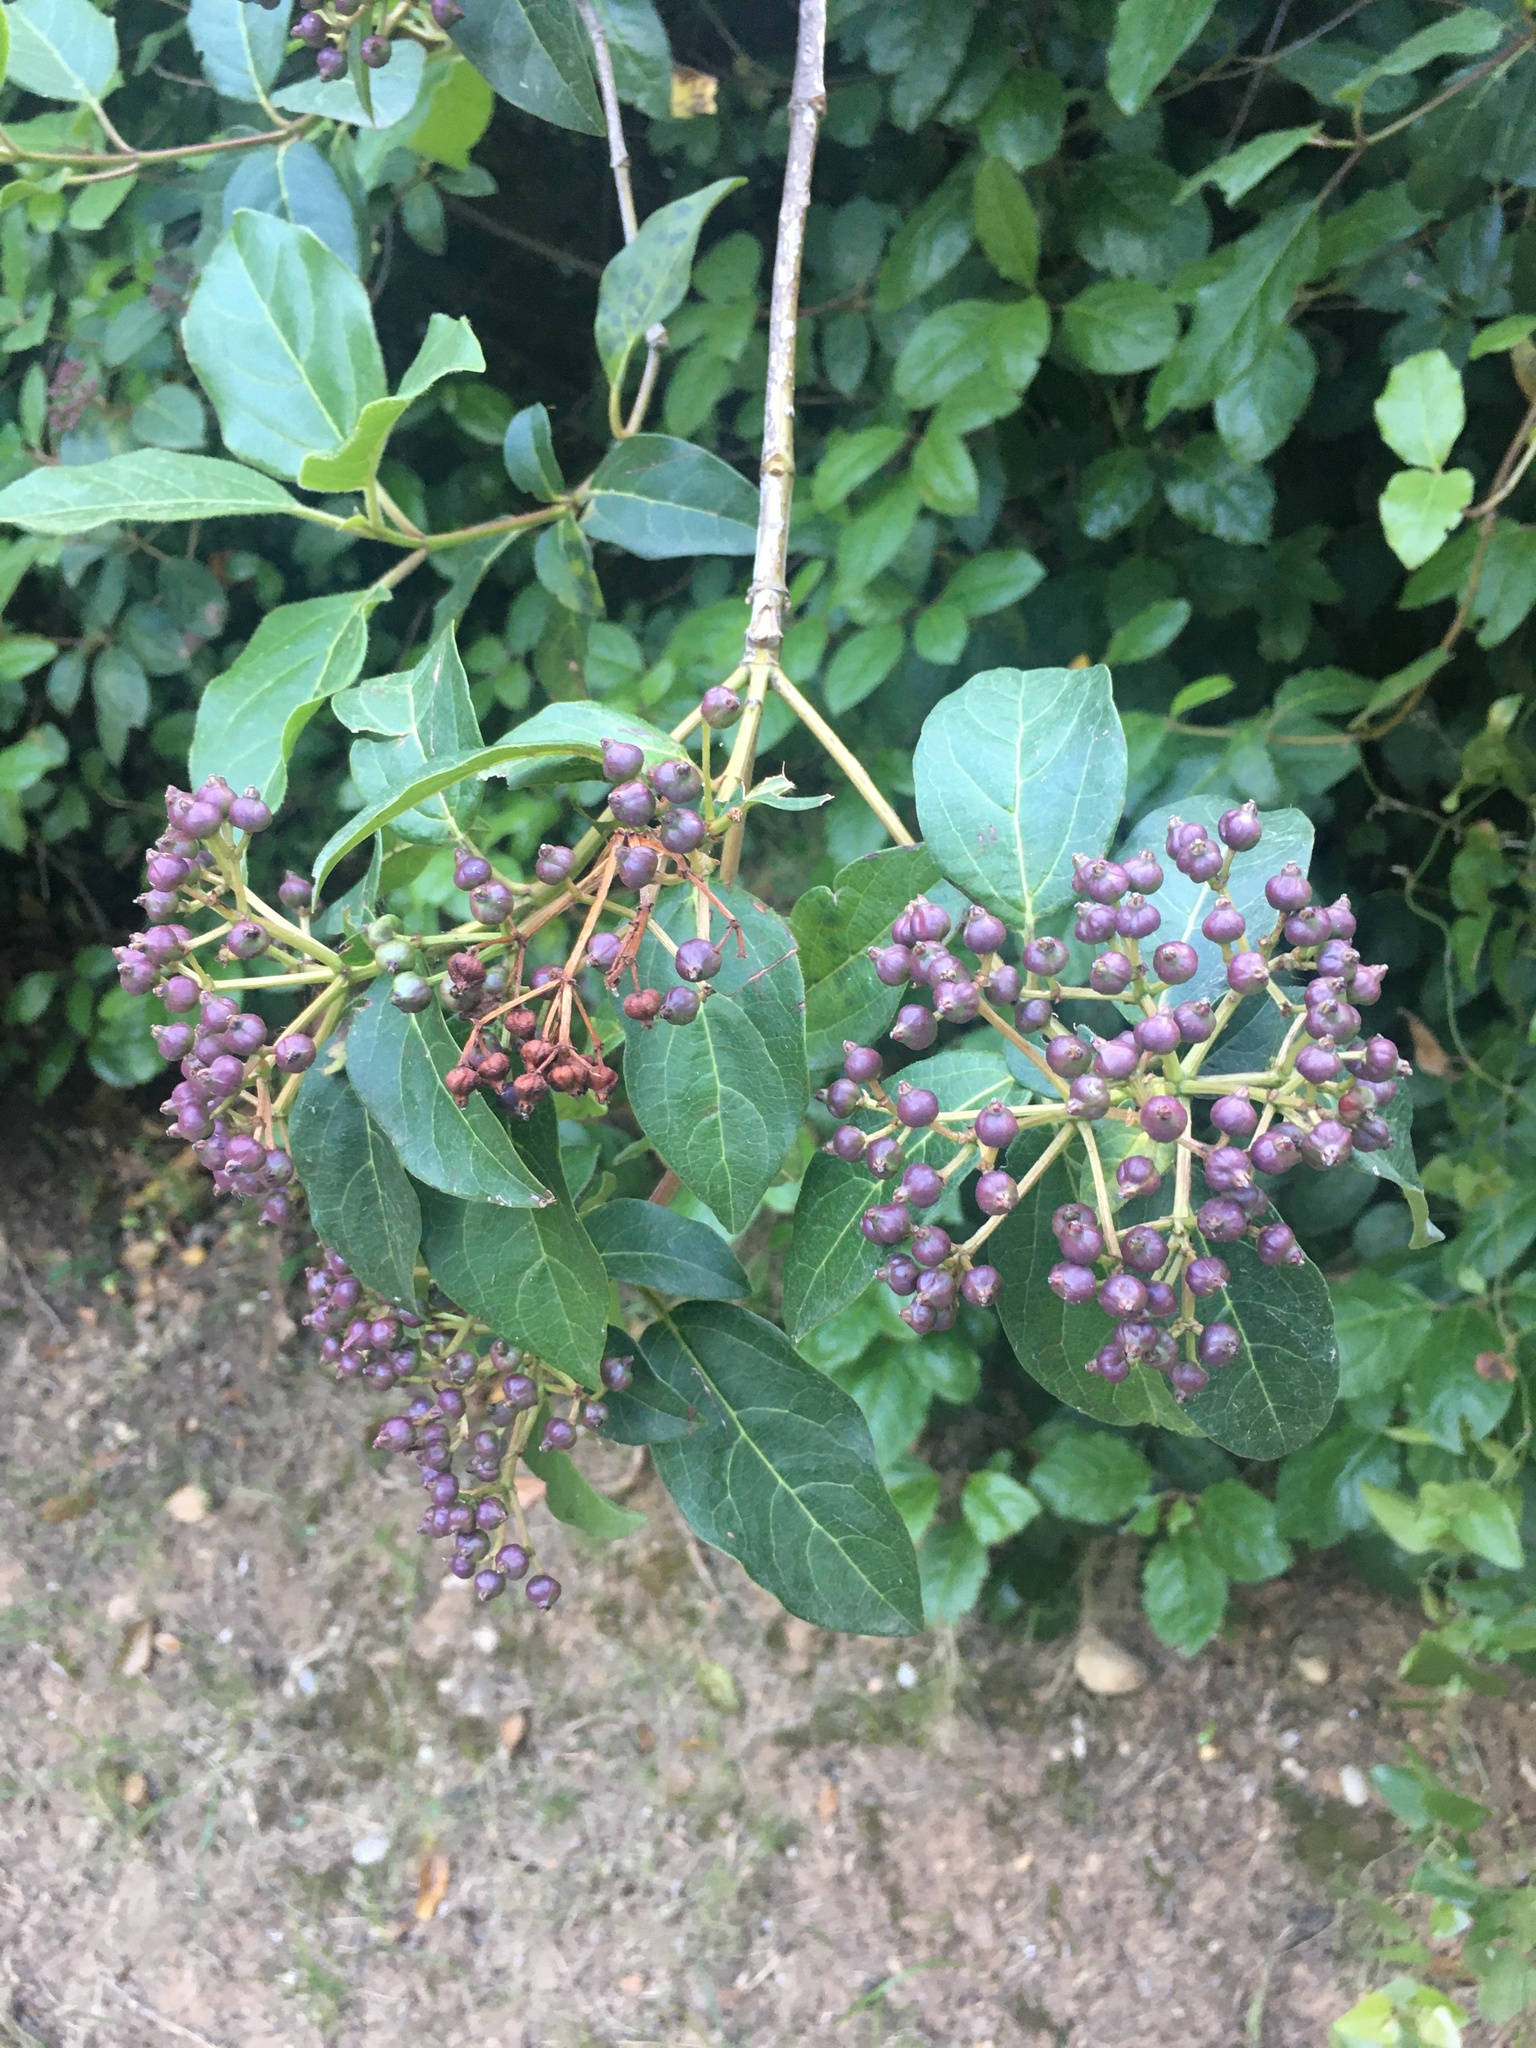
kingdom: Plantae
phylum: Tracheophyta
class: Magnoliopsida
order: Dipsacales
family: Viburnaceae
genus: Viburnum
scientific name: Viburnum tinus
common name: Laurustinus
